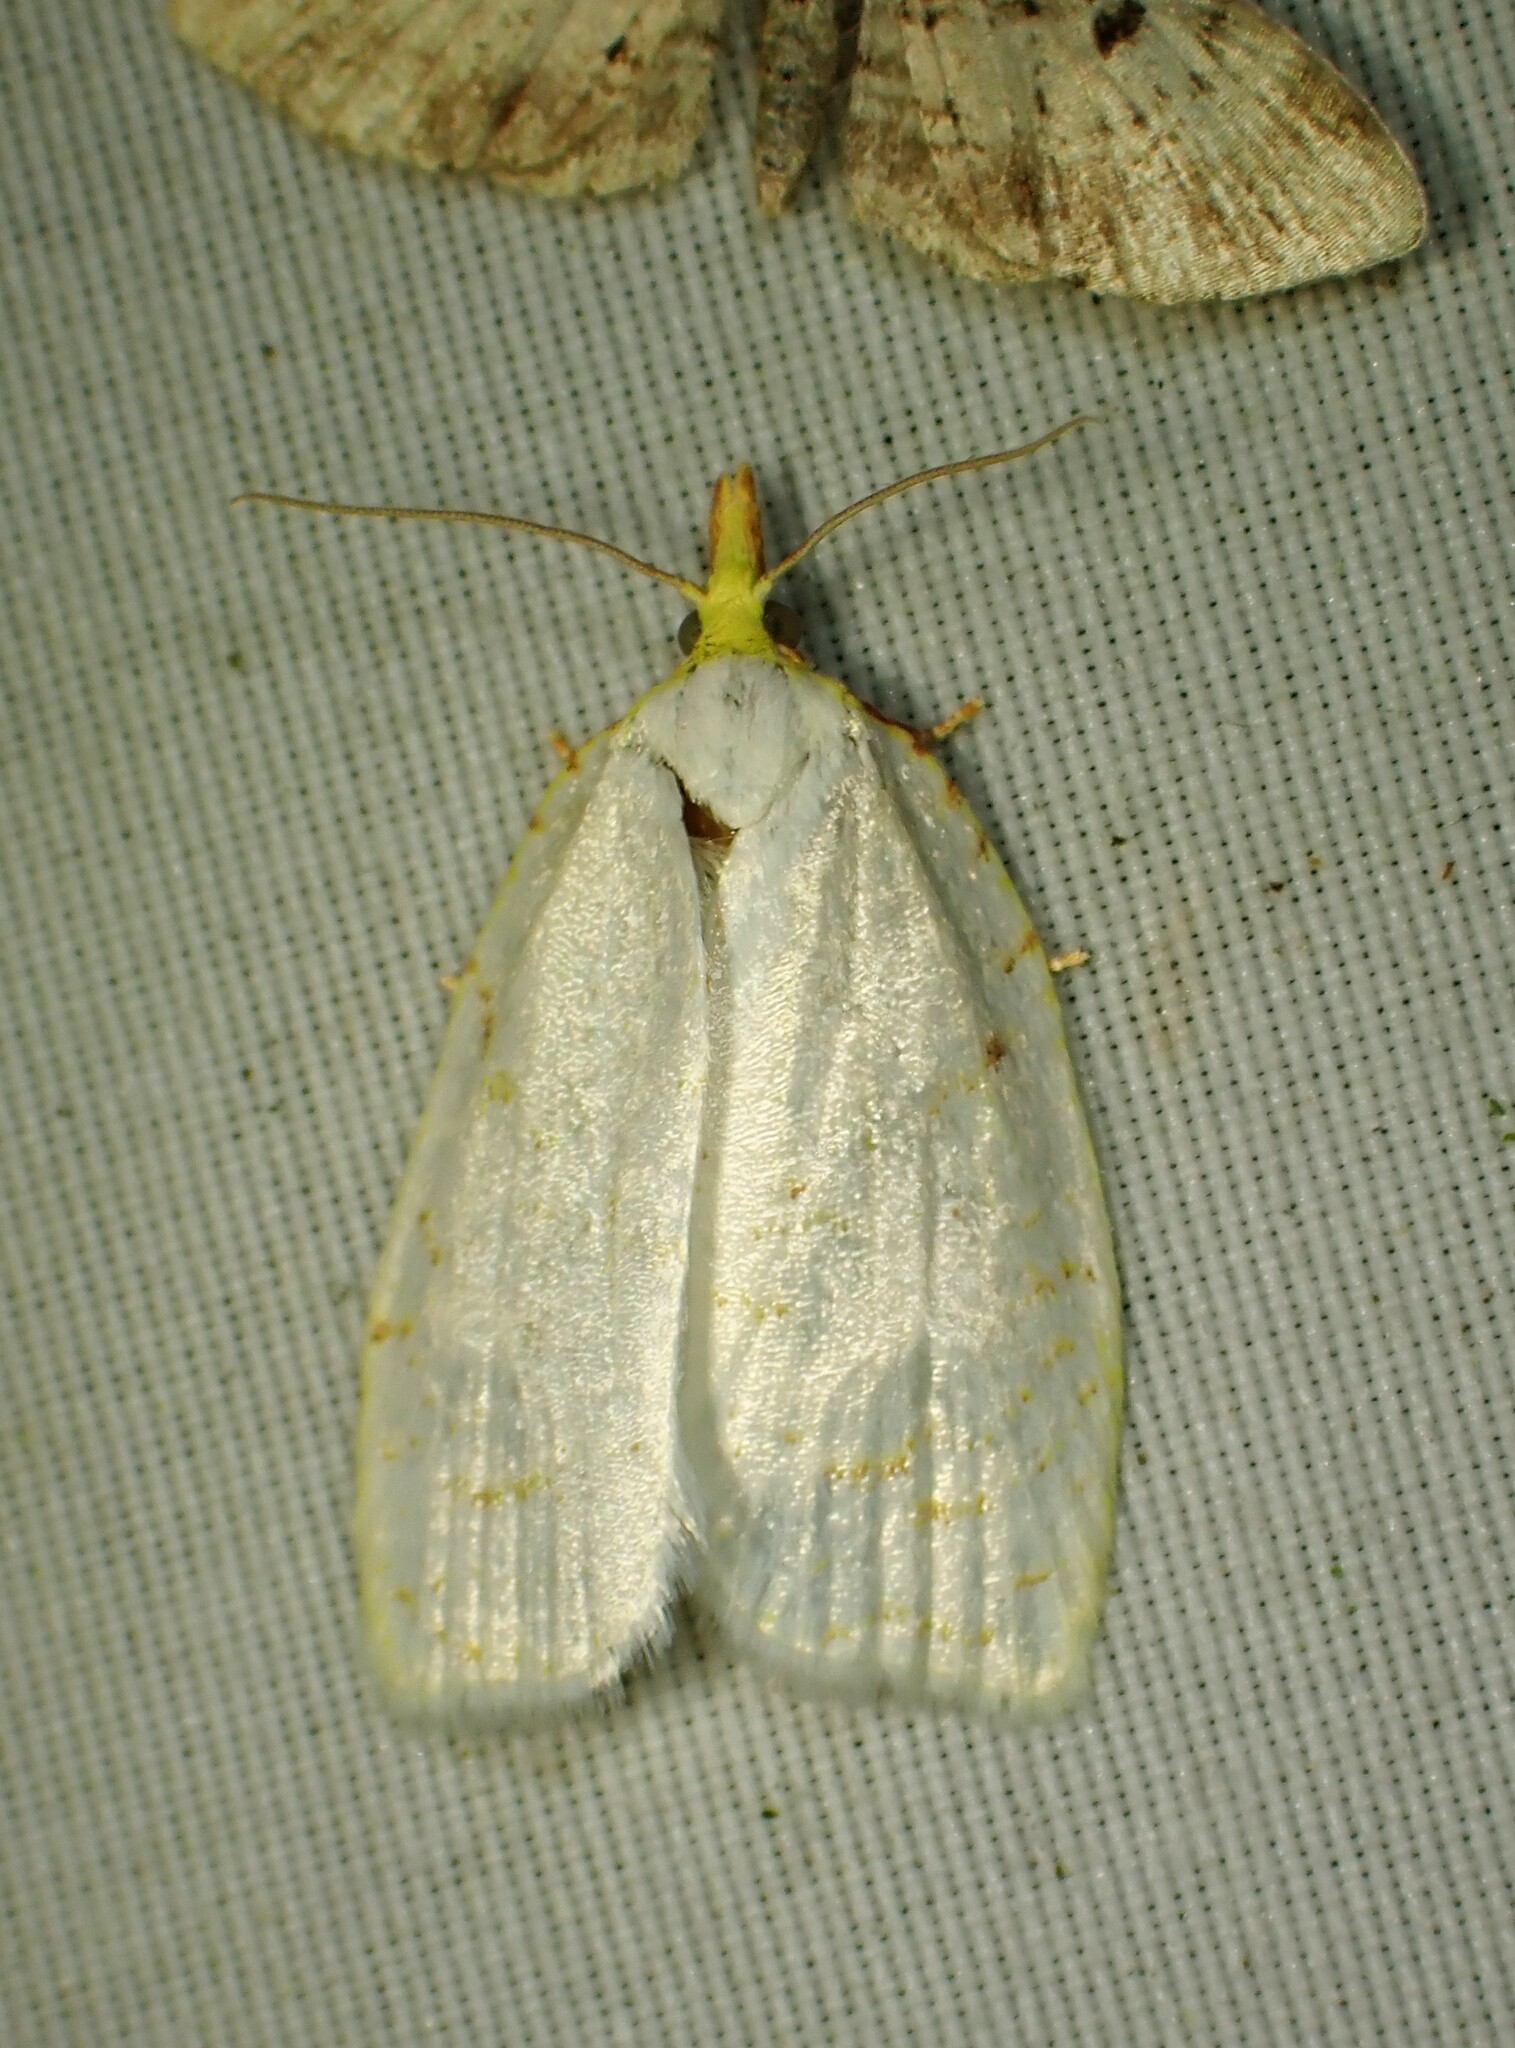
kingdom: Animalia
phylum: Arthropoda
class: Insecta
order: Lepidoptera
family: Tortricidae
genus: Cenopis
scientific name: Cenopis pettitana
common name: Maple-basswood leafroller moth
